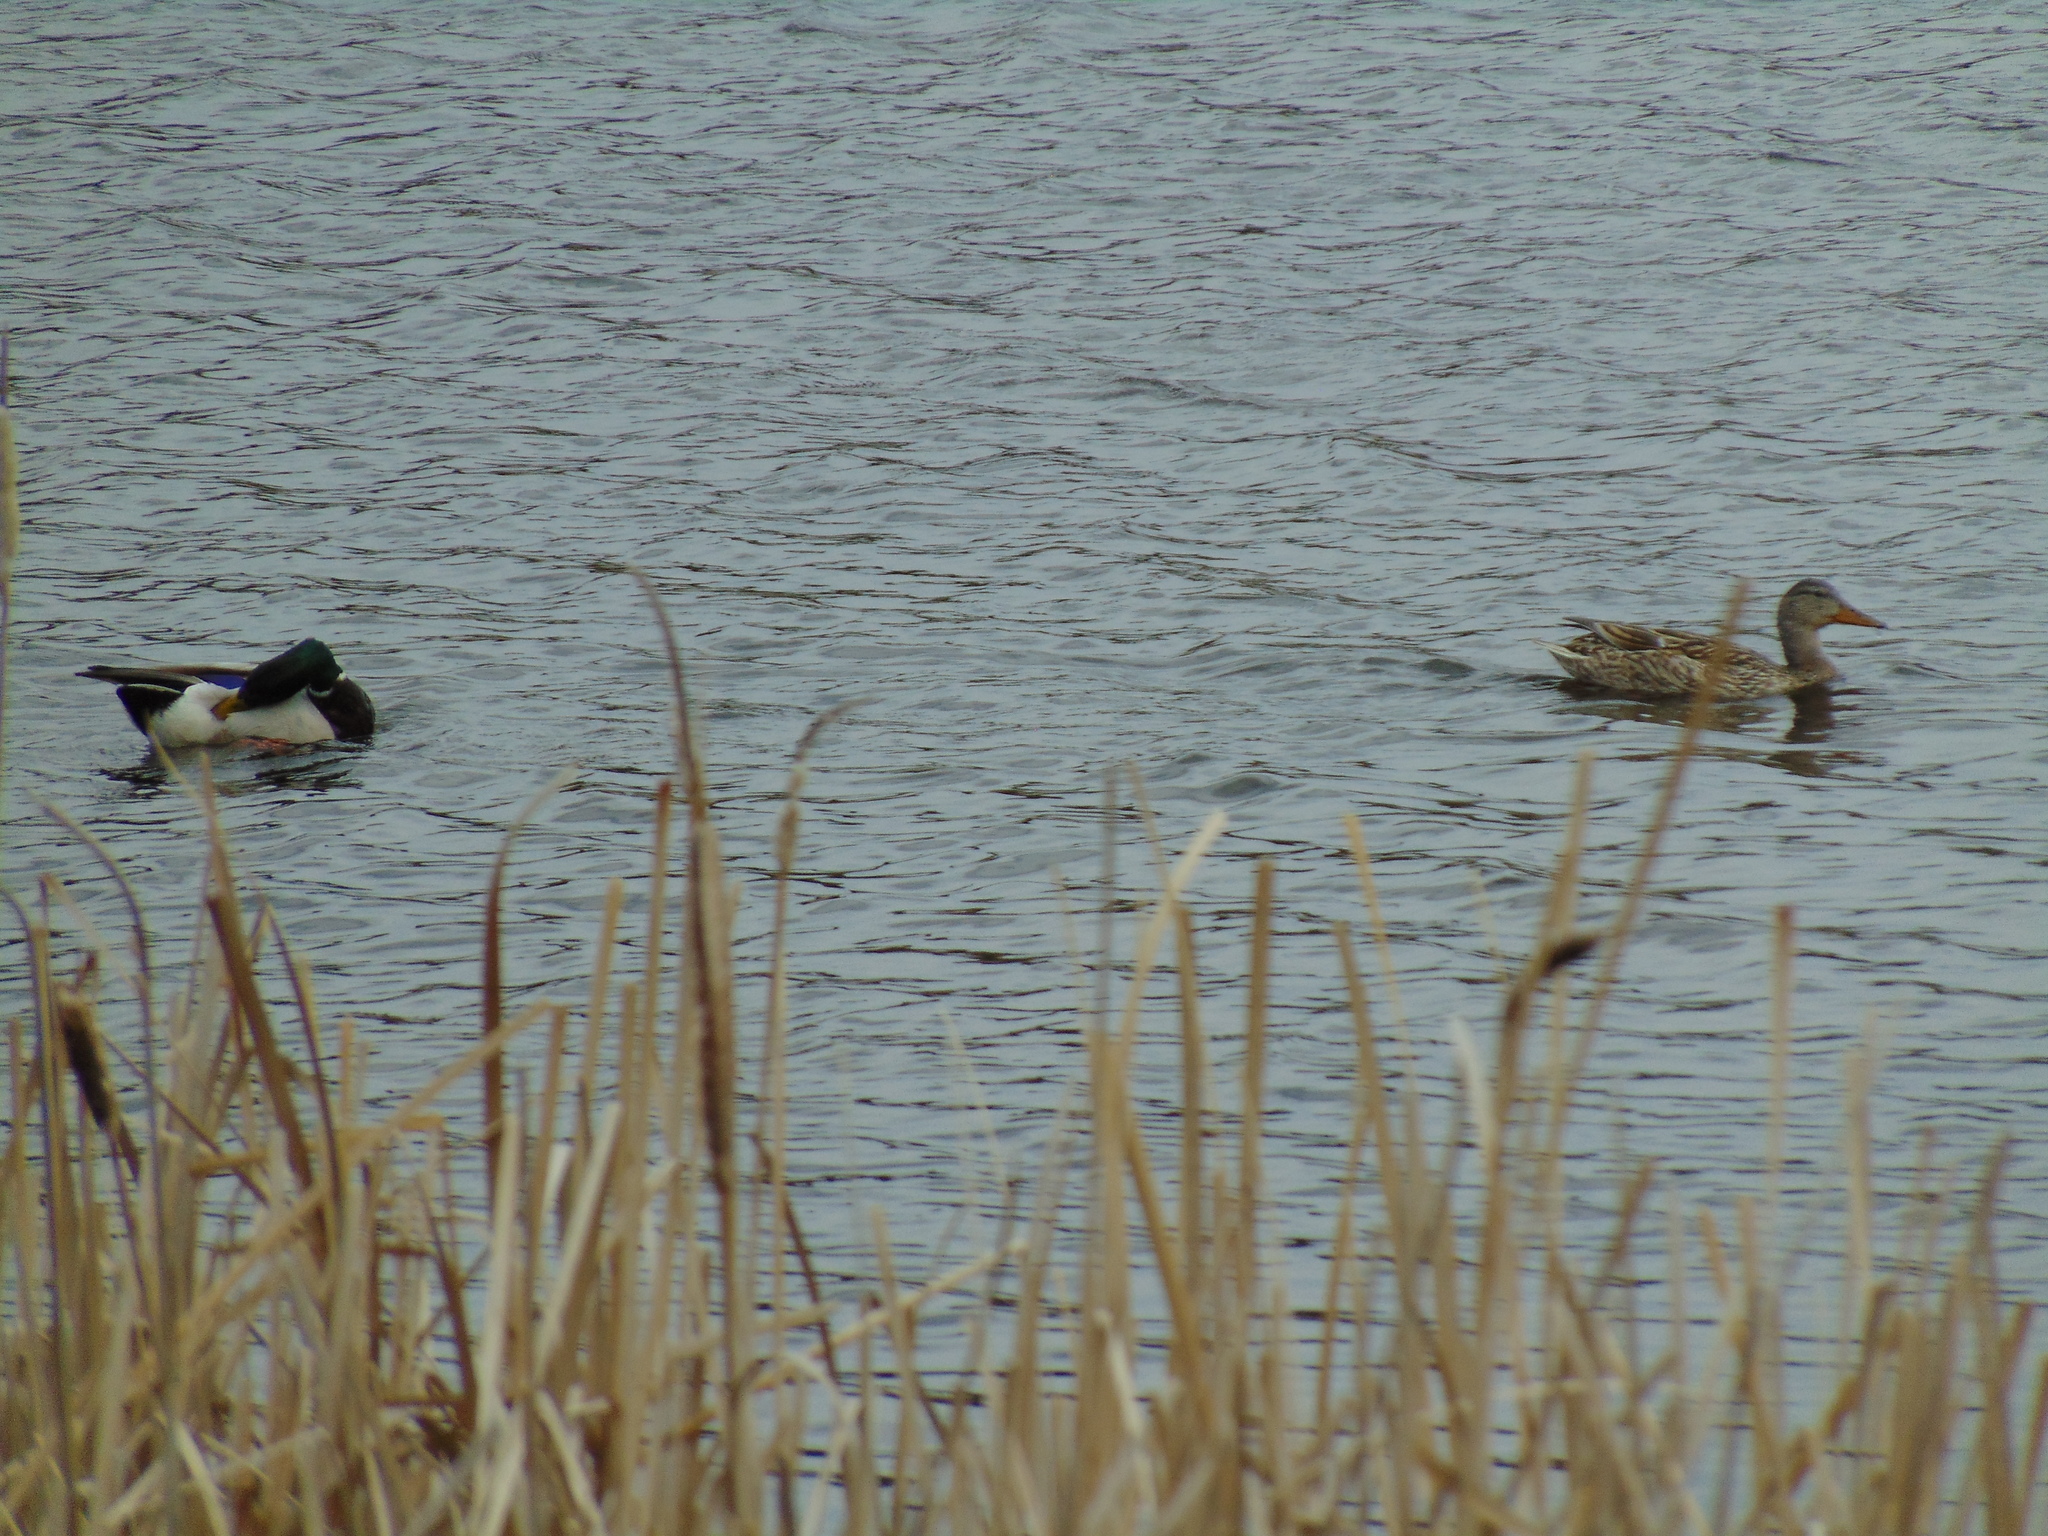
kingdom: Animalia
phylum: Chordata
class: Aves
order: Anseriformes
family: Anatidae
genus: Anas
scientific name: Anas platyrhynchos
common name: Mallard
